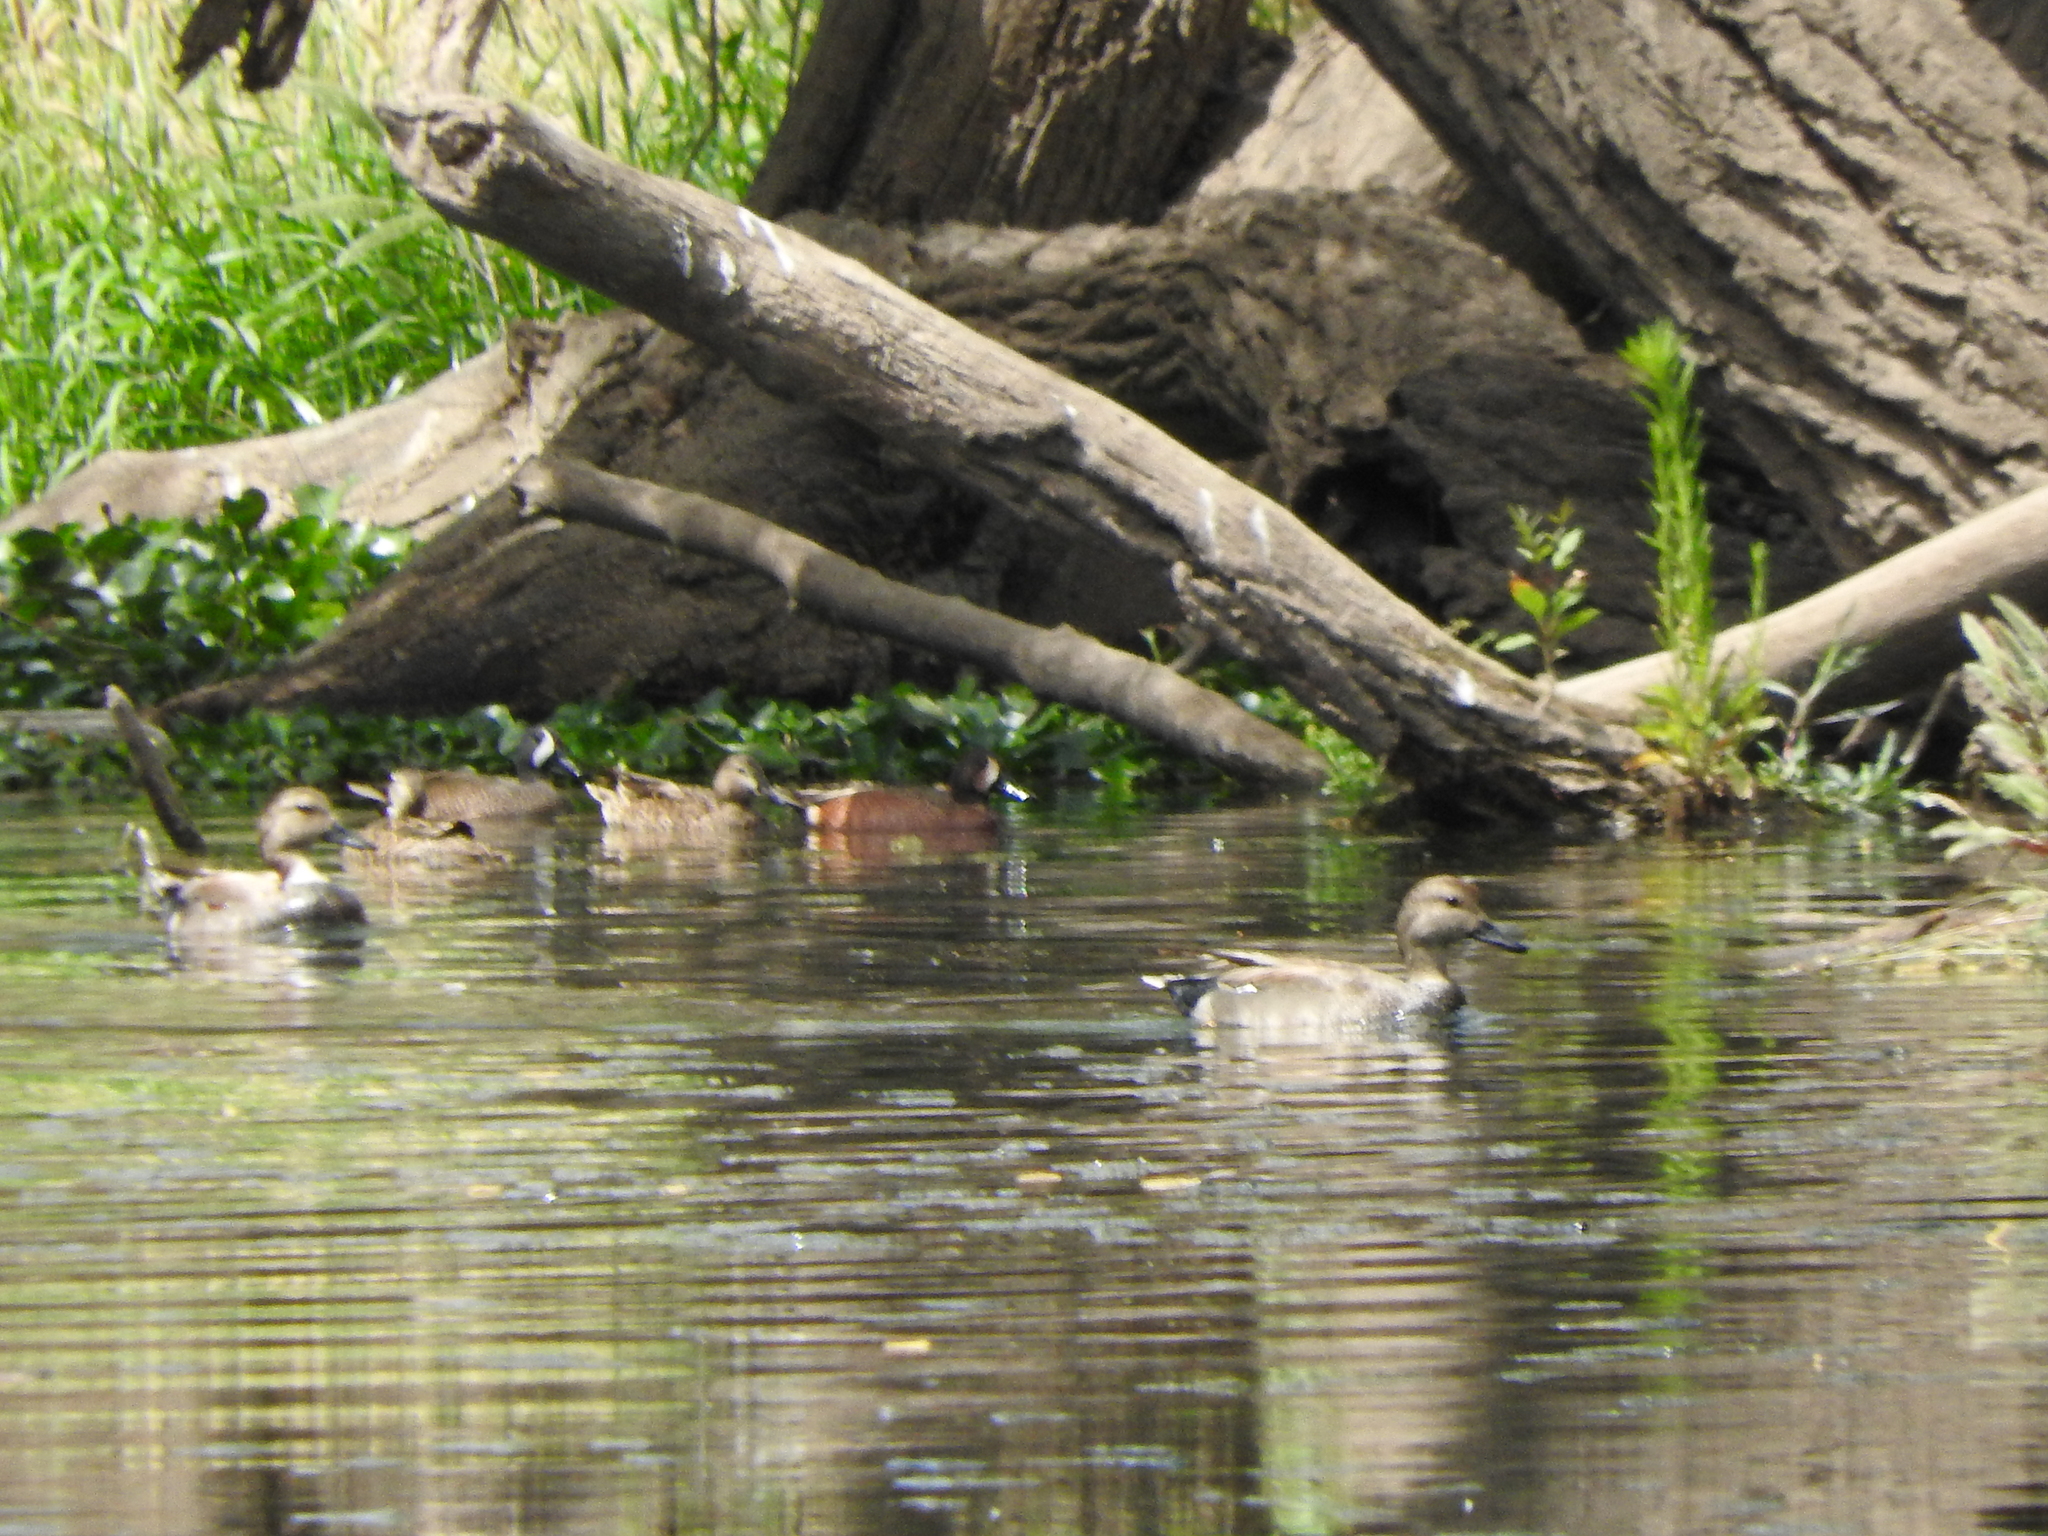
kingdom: Animalia
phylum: Chordata
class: Aves
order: Anseriformes
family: Anatidae
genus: Spatula
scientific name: Spatula discors
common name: Blue-winged teal
